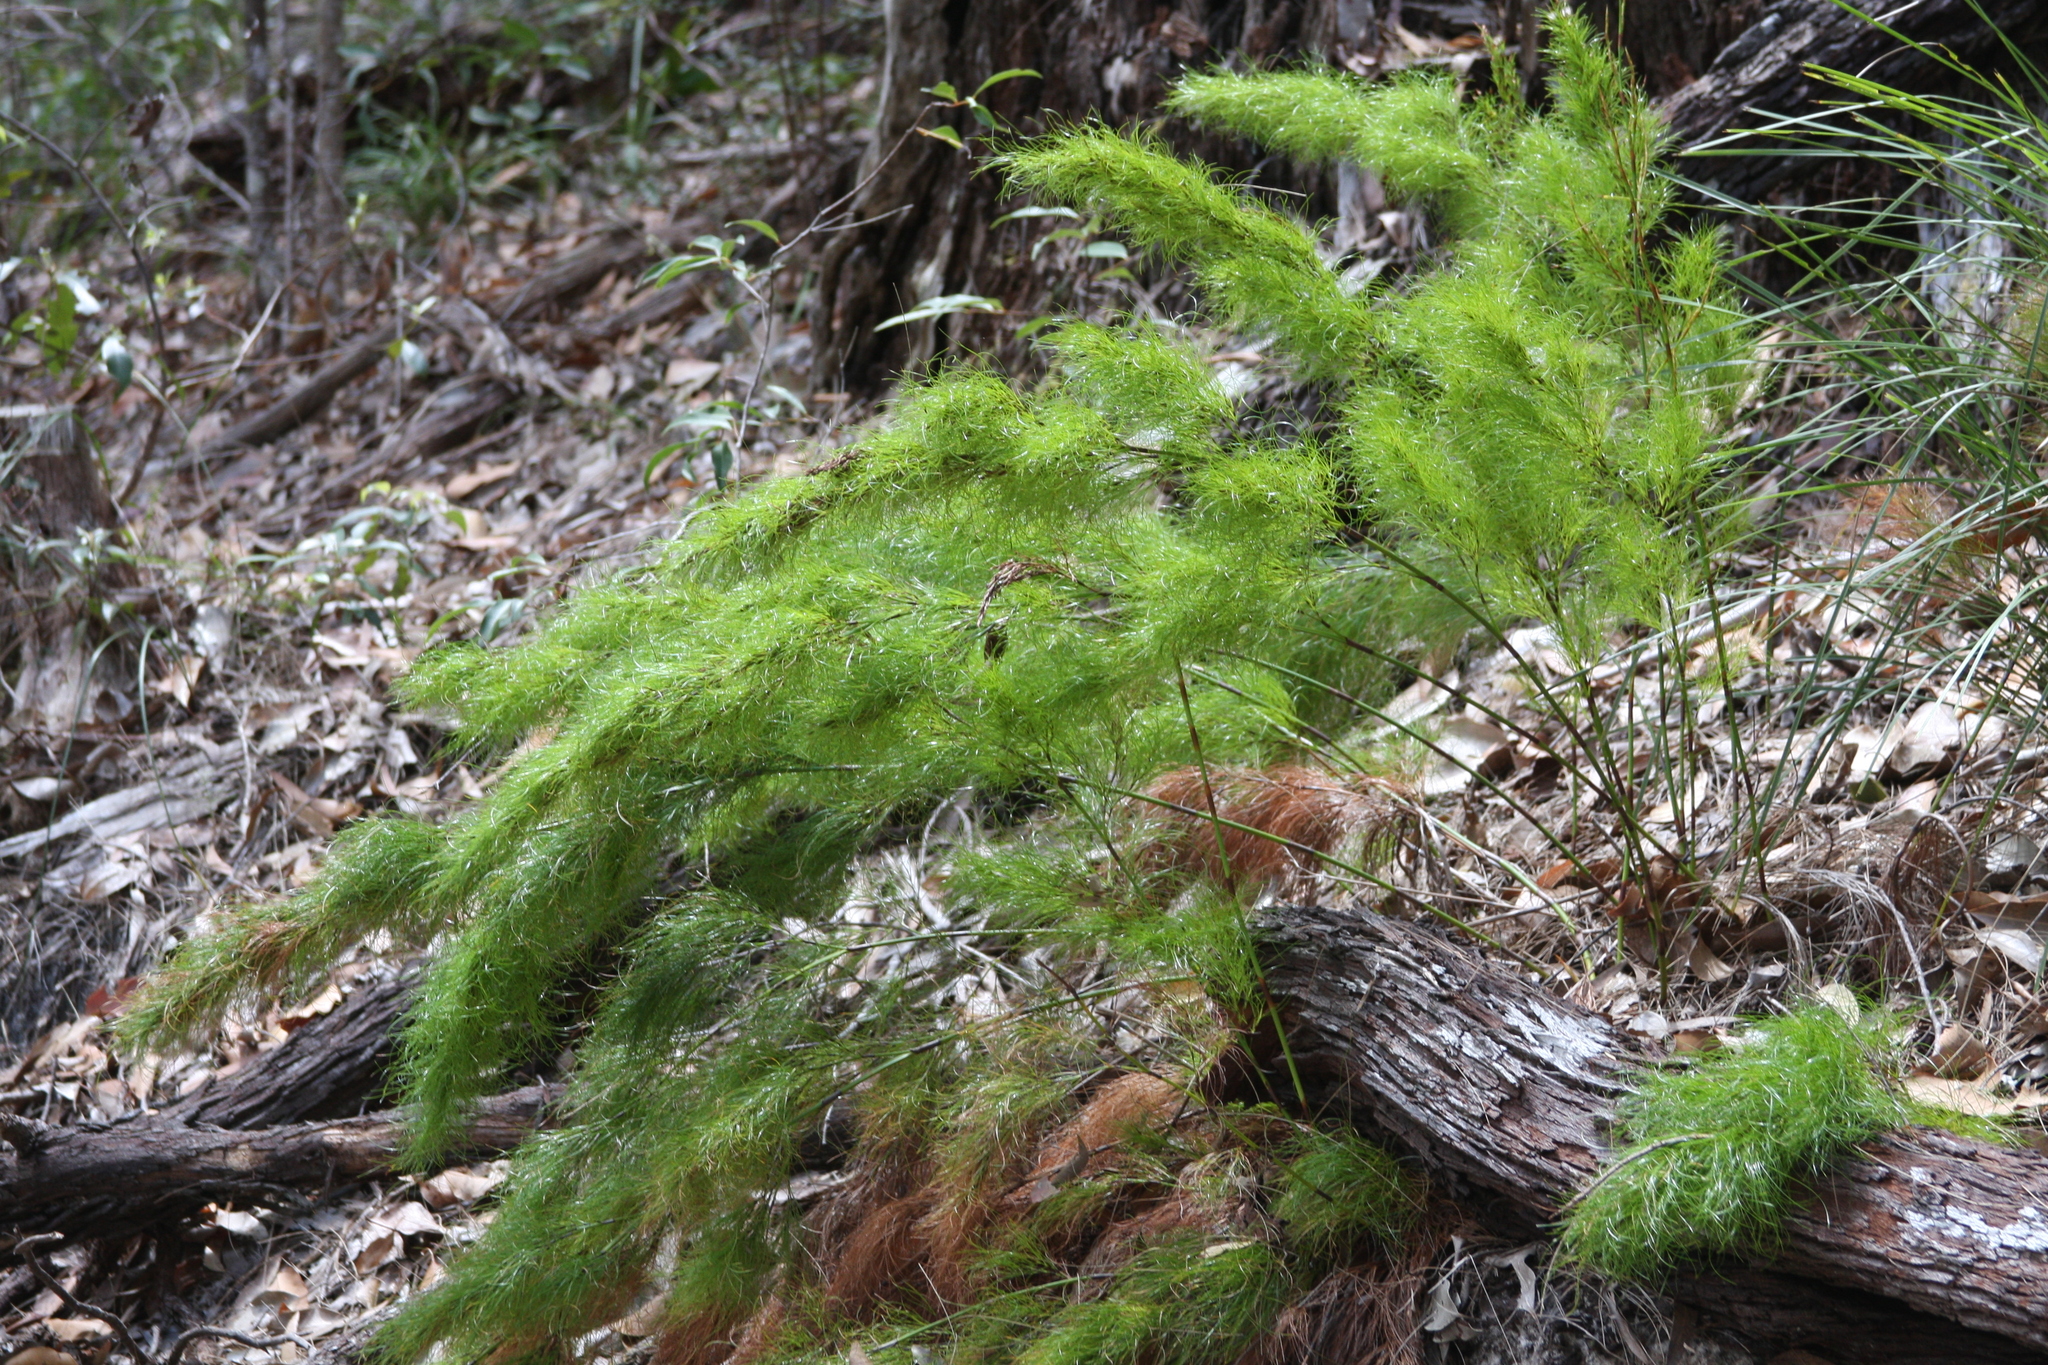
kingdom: Plantae
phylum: Tracheophyta
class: Liliopsida
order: Poales
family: Cyperaceae
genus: Caustis
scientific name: Caustis blakei
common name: Foxtail-fern
